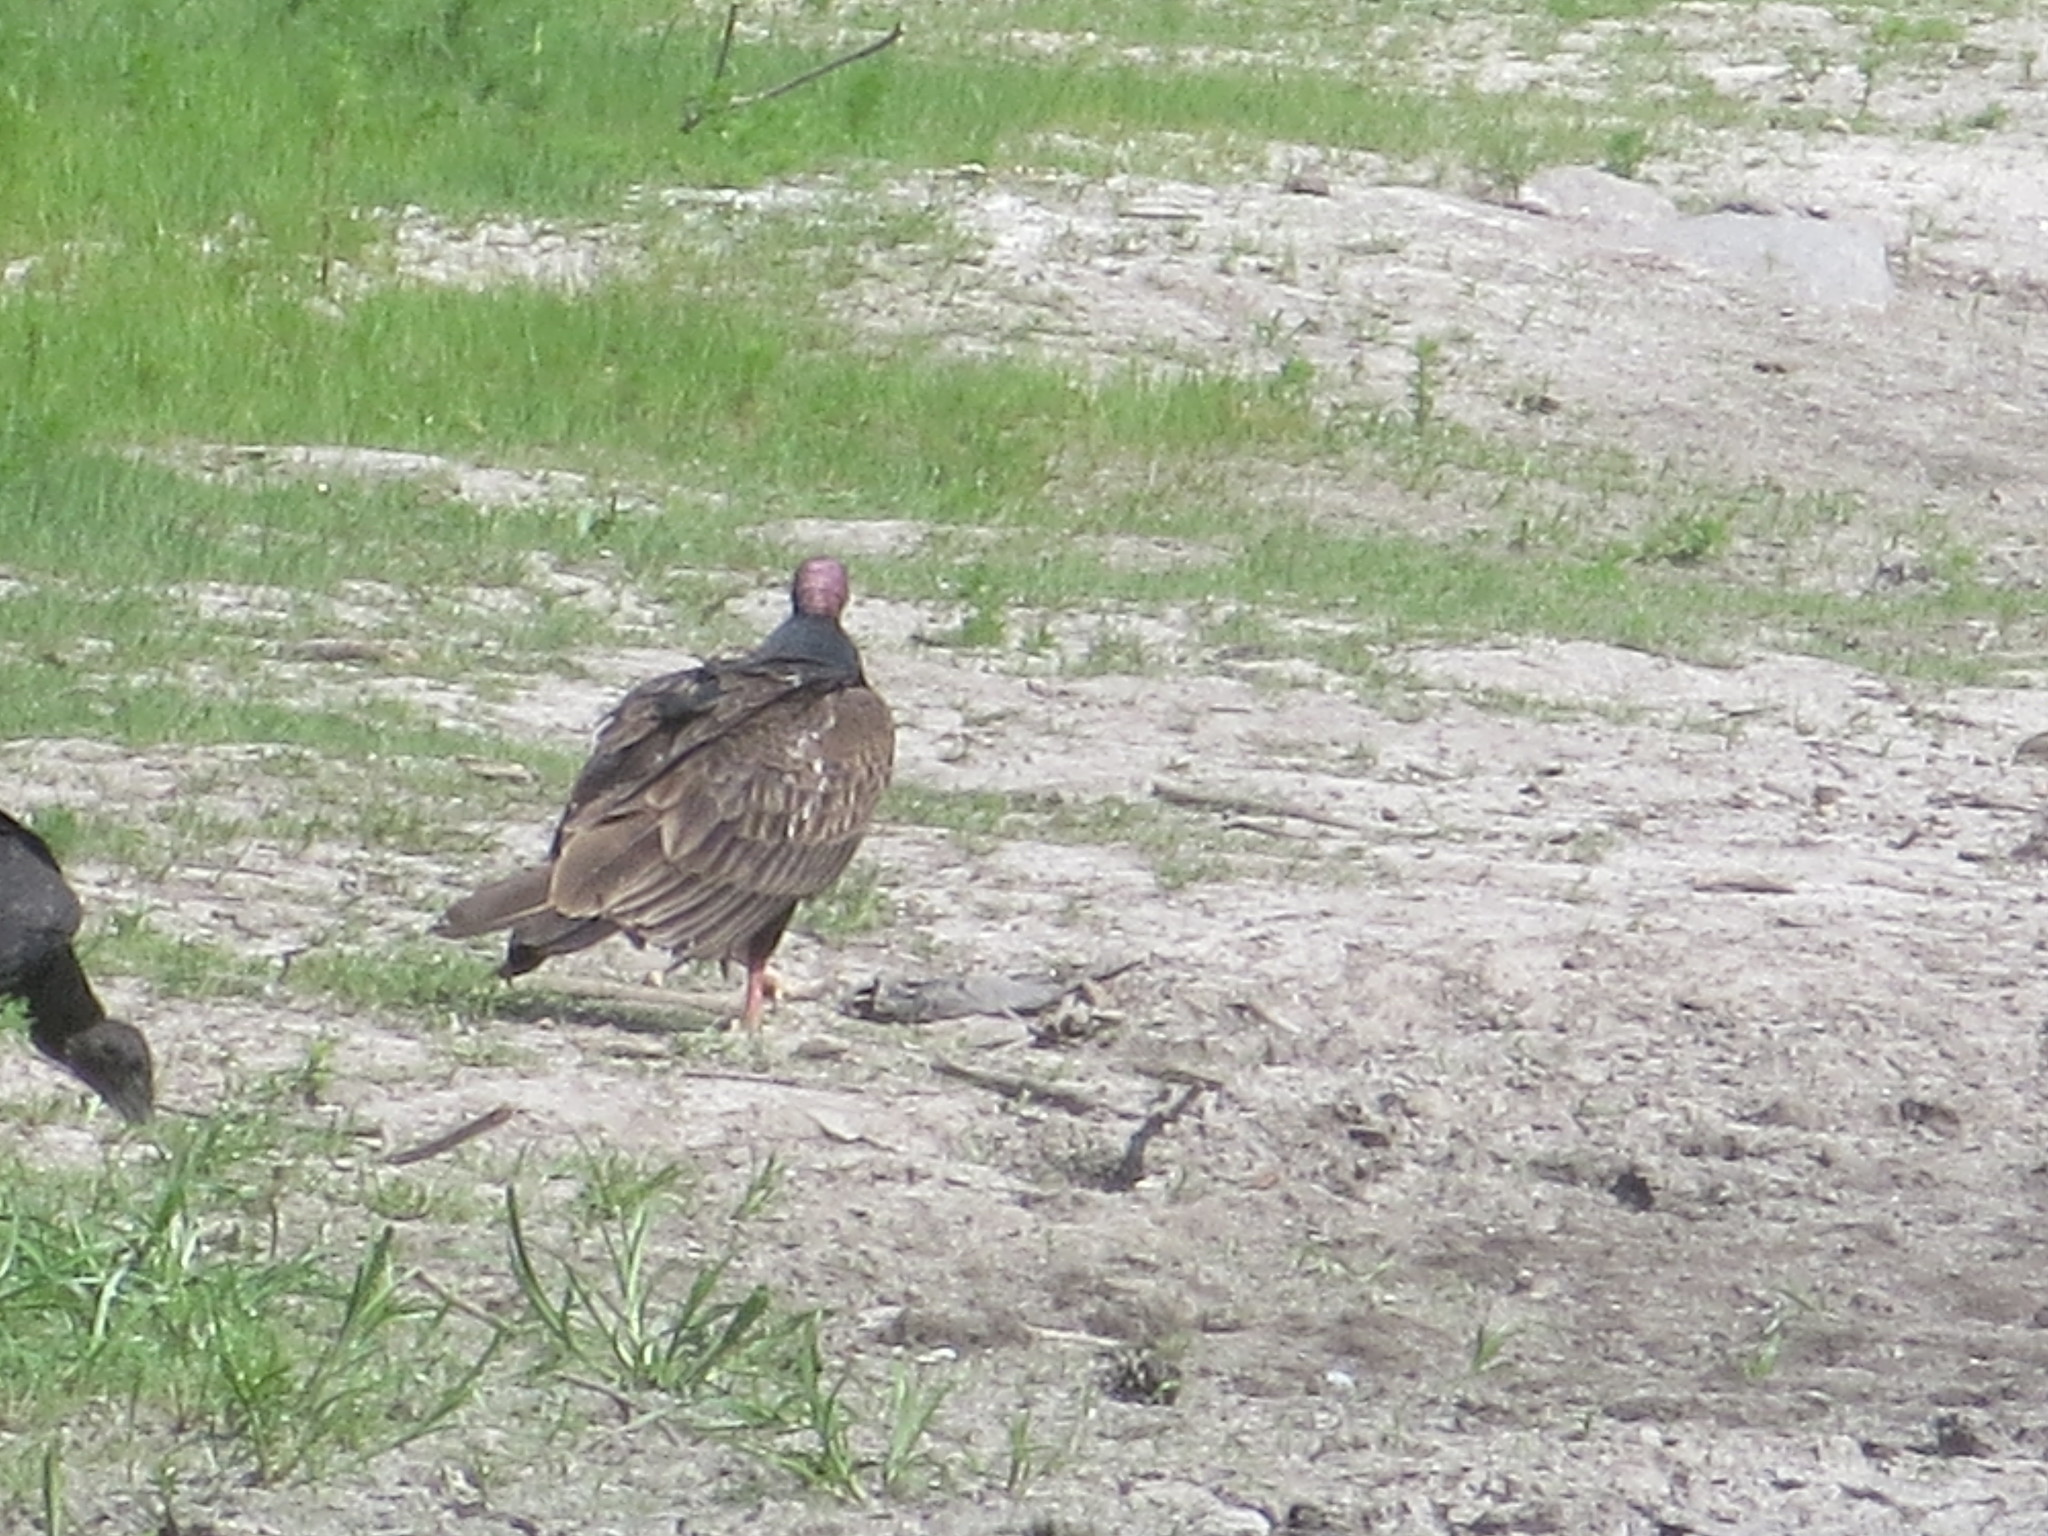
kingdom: Animalia
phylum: Chordata
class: Aves
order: Accipitriformes
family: Cathartidae
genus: Cathartes
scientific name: Cathartes aura
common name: Turkey vulture
